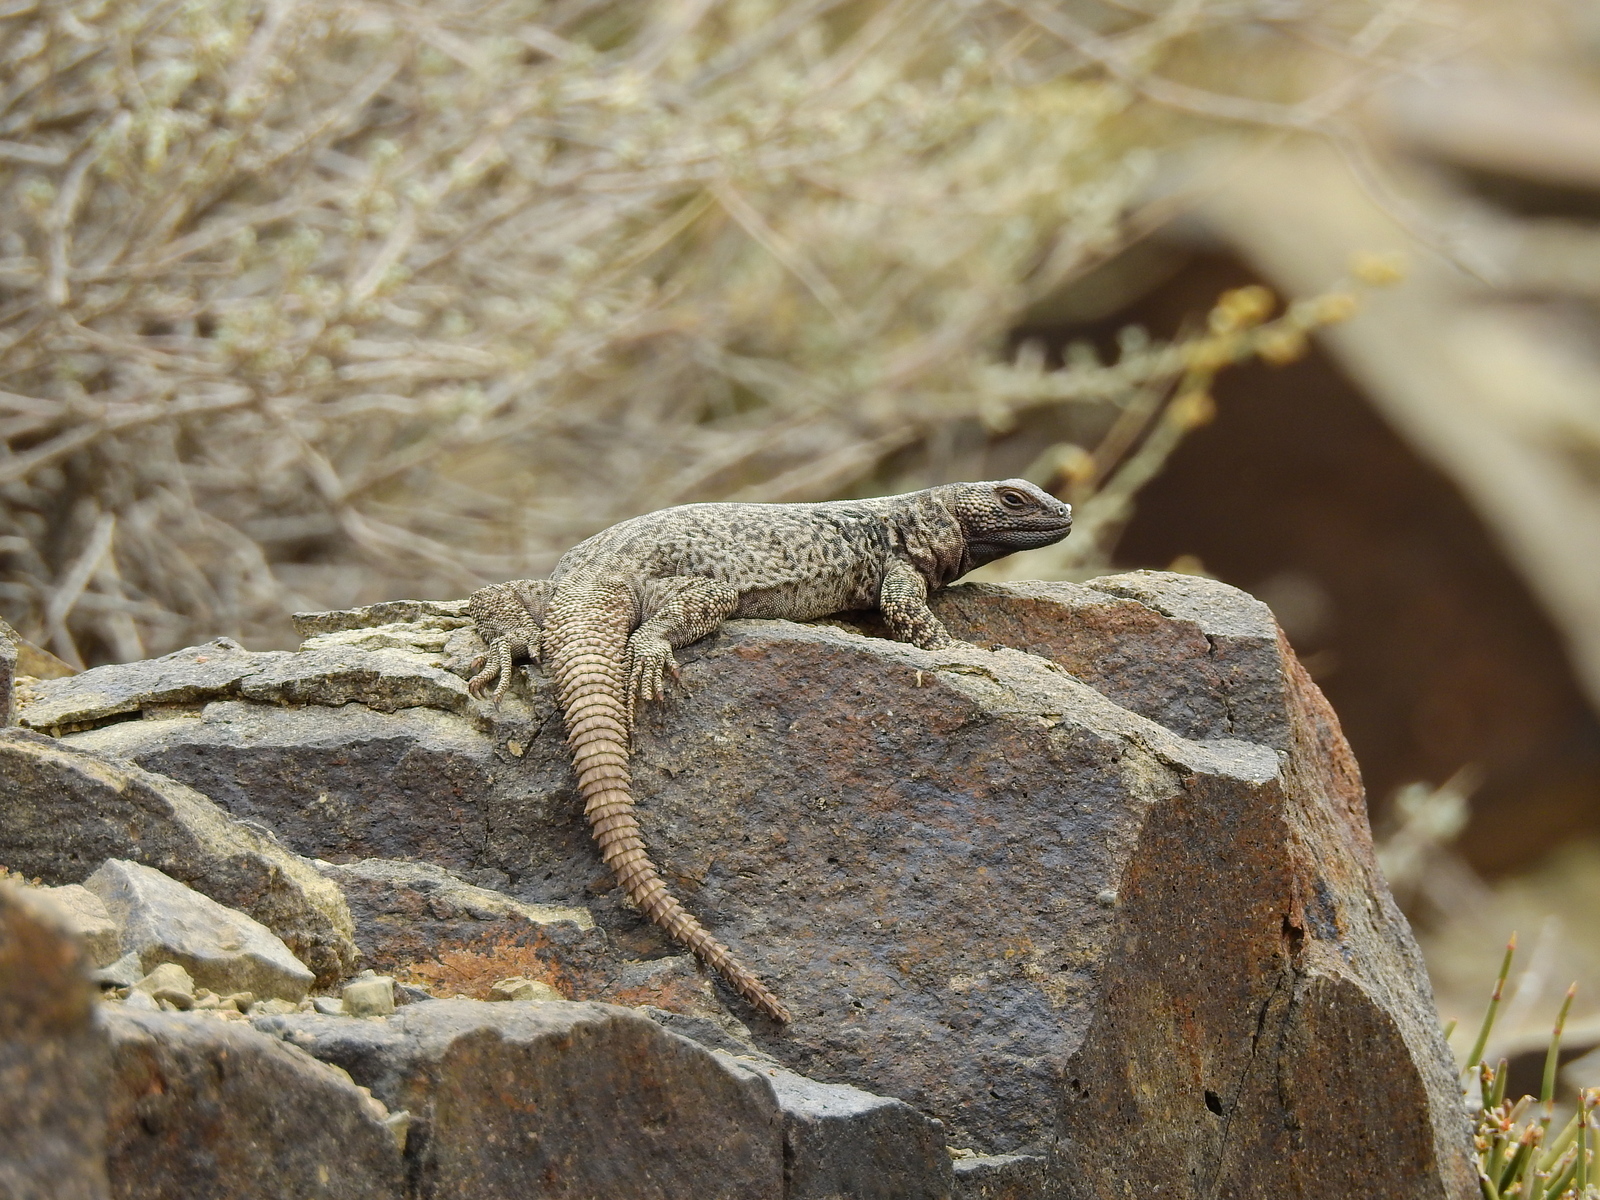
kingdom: Animalia
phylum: Chordata
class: Squamata
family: Liolaemidae
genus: Phymaturus
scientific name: Phymaturus palluma
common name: High mountain lizard
